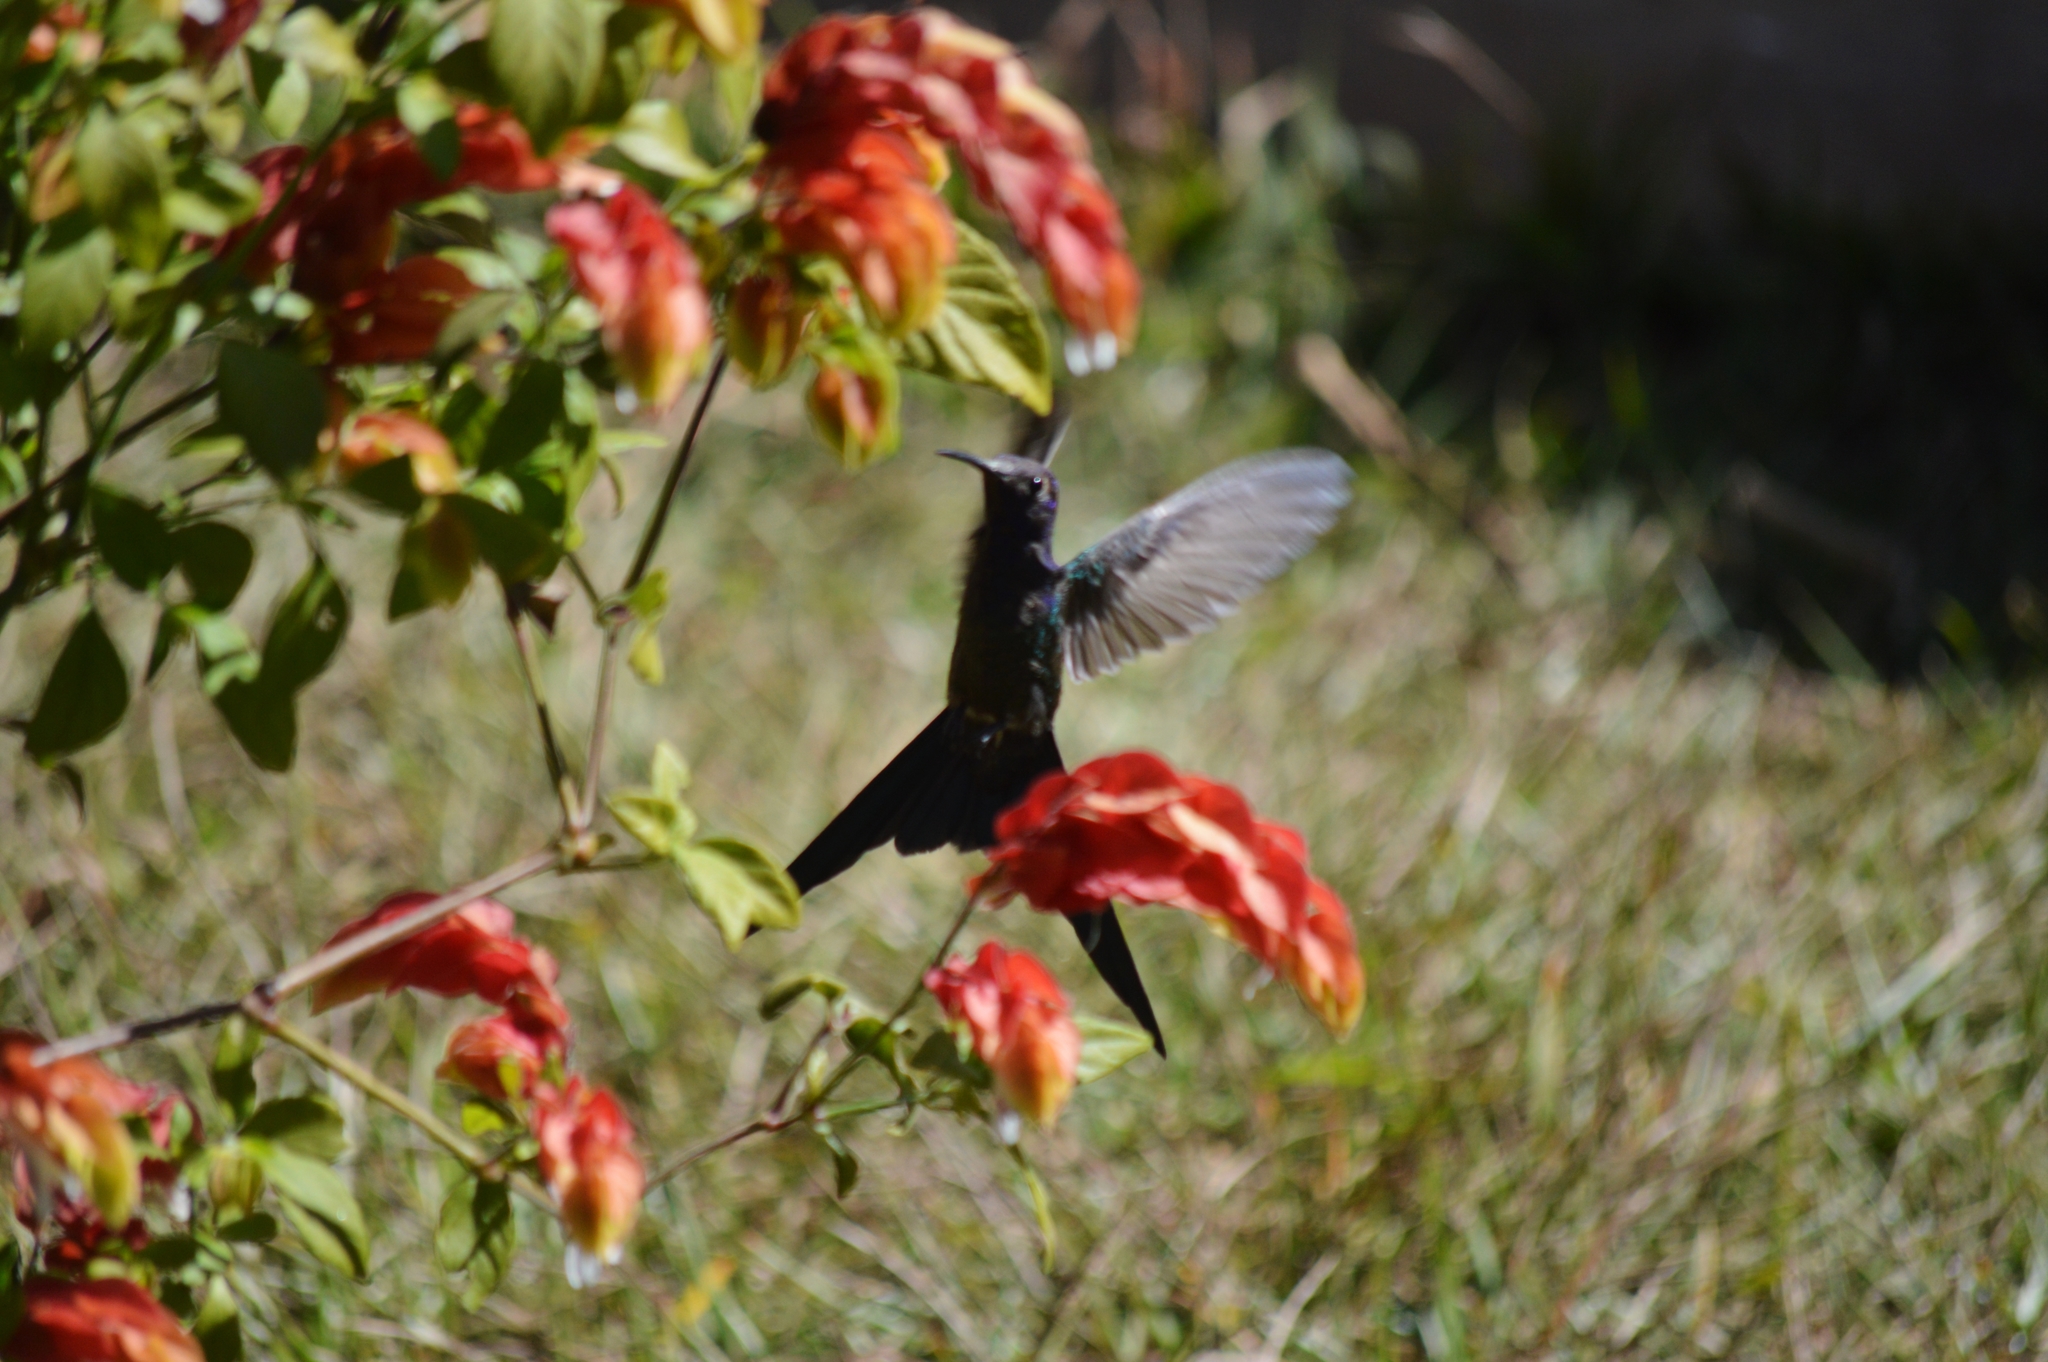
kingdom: Animalia
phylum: Chordata
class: Aves
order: Apodiformes
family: Trochilidae
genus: Eupetomena
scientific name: Eupetomena macroura
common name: Swallow-tailed hummingbird
